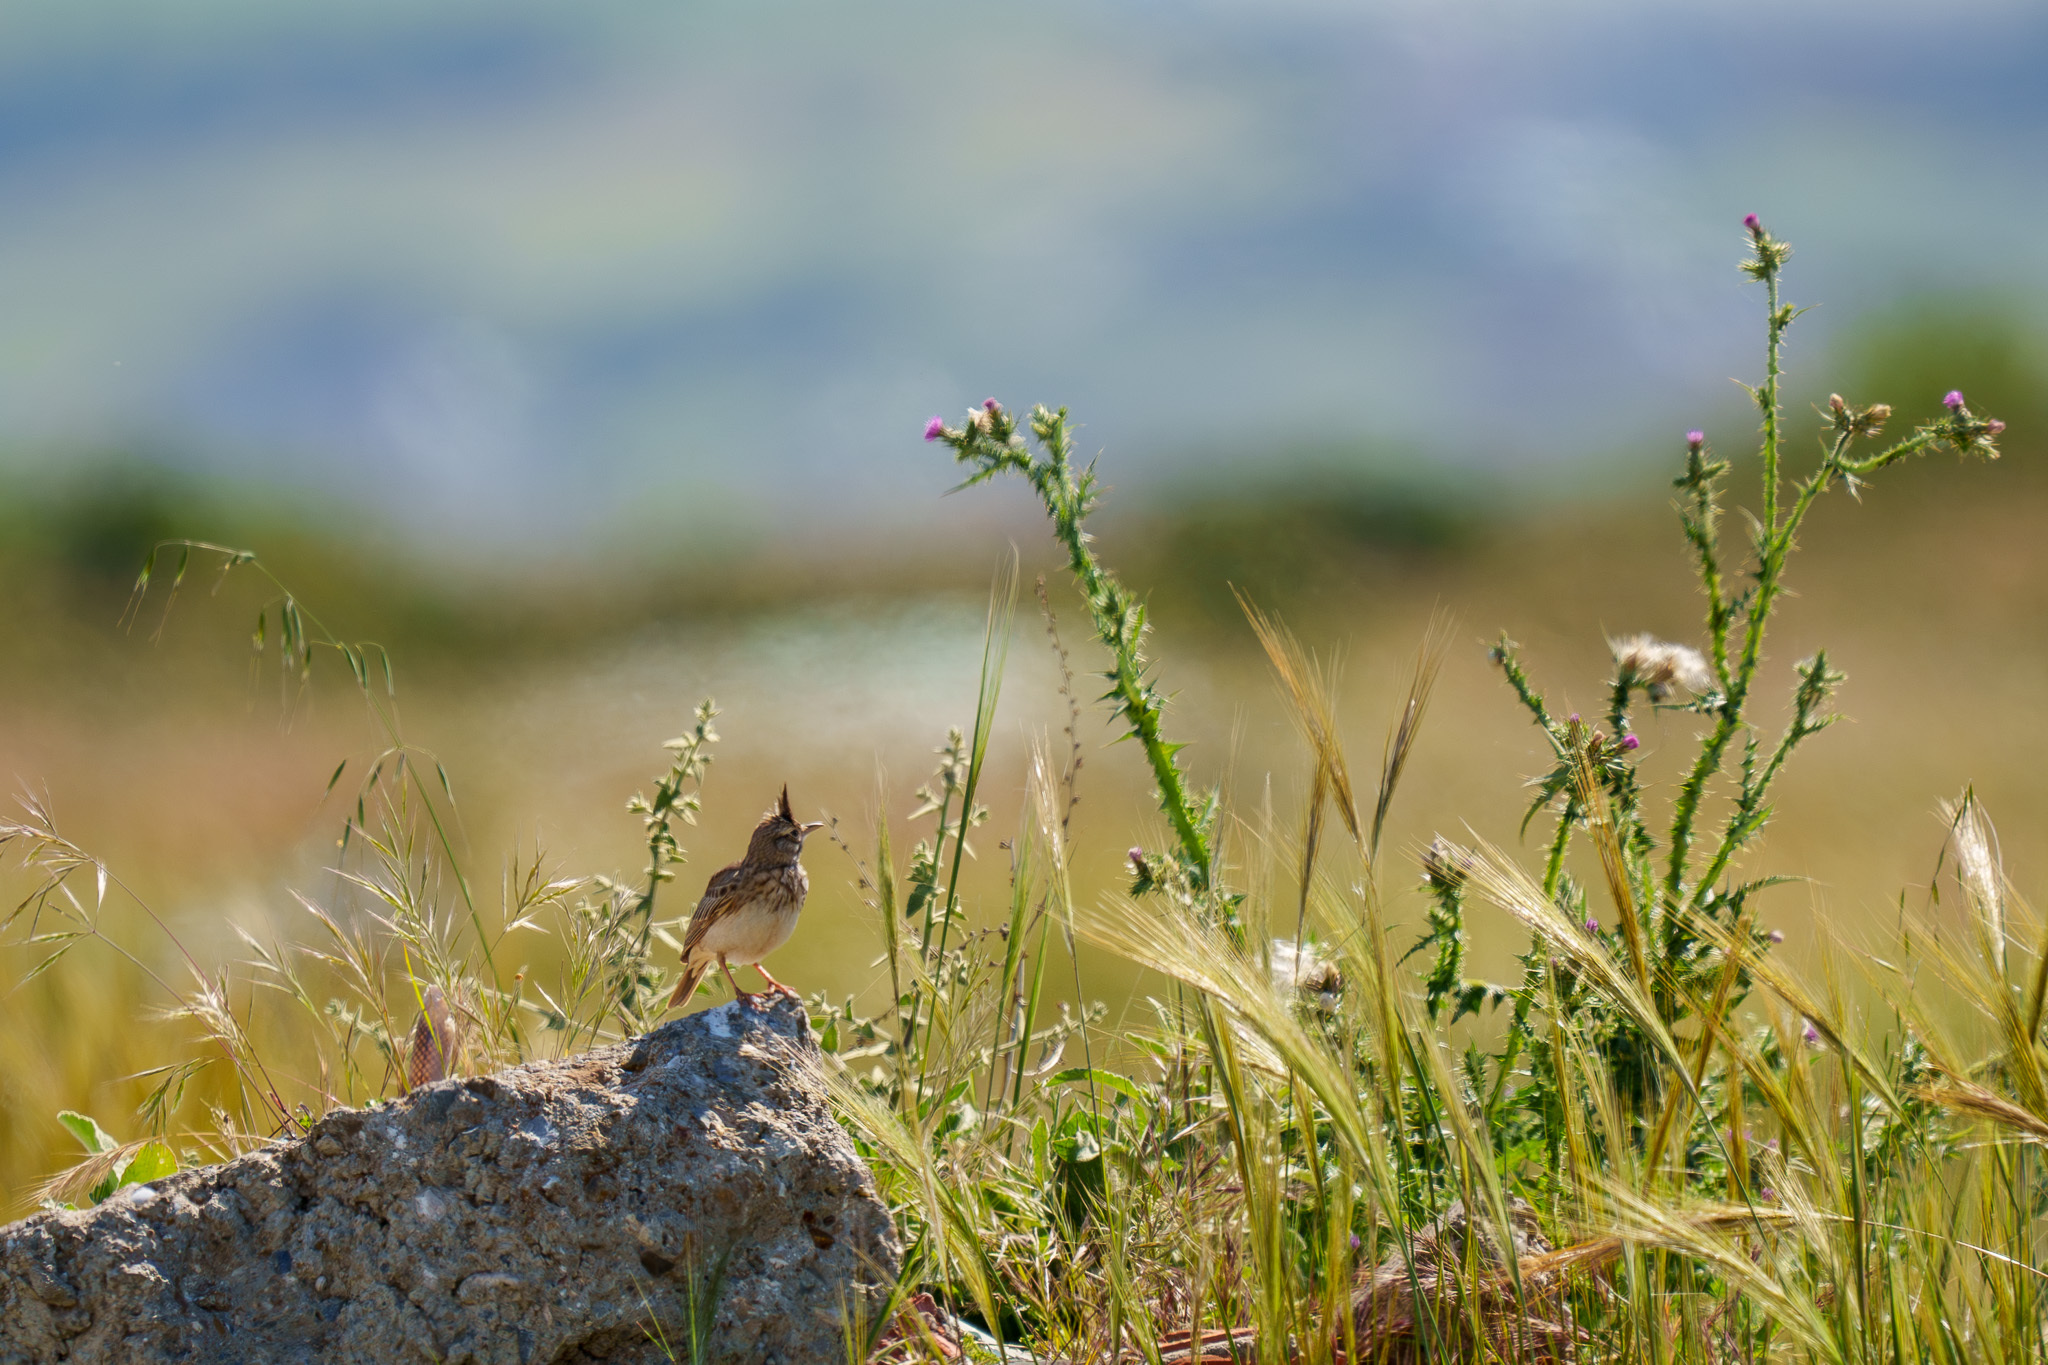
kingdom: Animalia
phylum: Chordata
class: Aves
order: Passeriformes
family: Alaudidae
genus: Galerida
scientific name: Galerida cristata
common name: Crested lark
